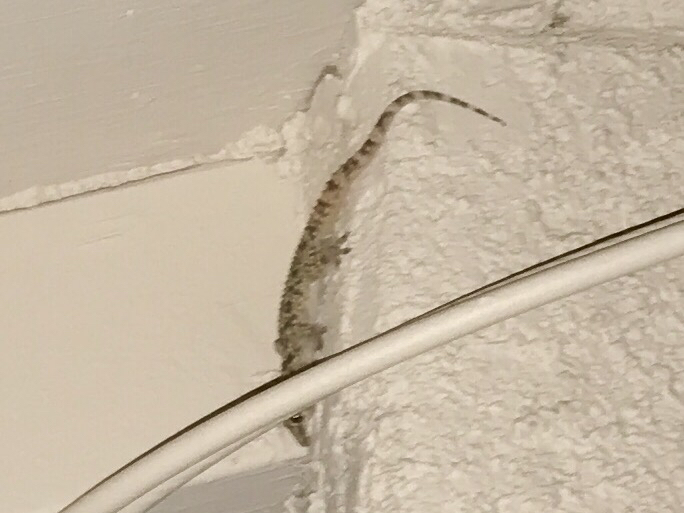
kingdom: Animalia
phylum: Chordata
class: Squamata
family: Gekkonidae
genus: Hemidactylus
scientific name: Hemidactylus turcicus
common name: Turkish gecko
